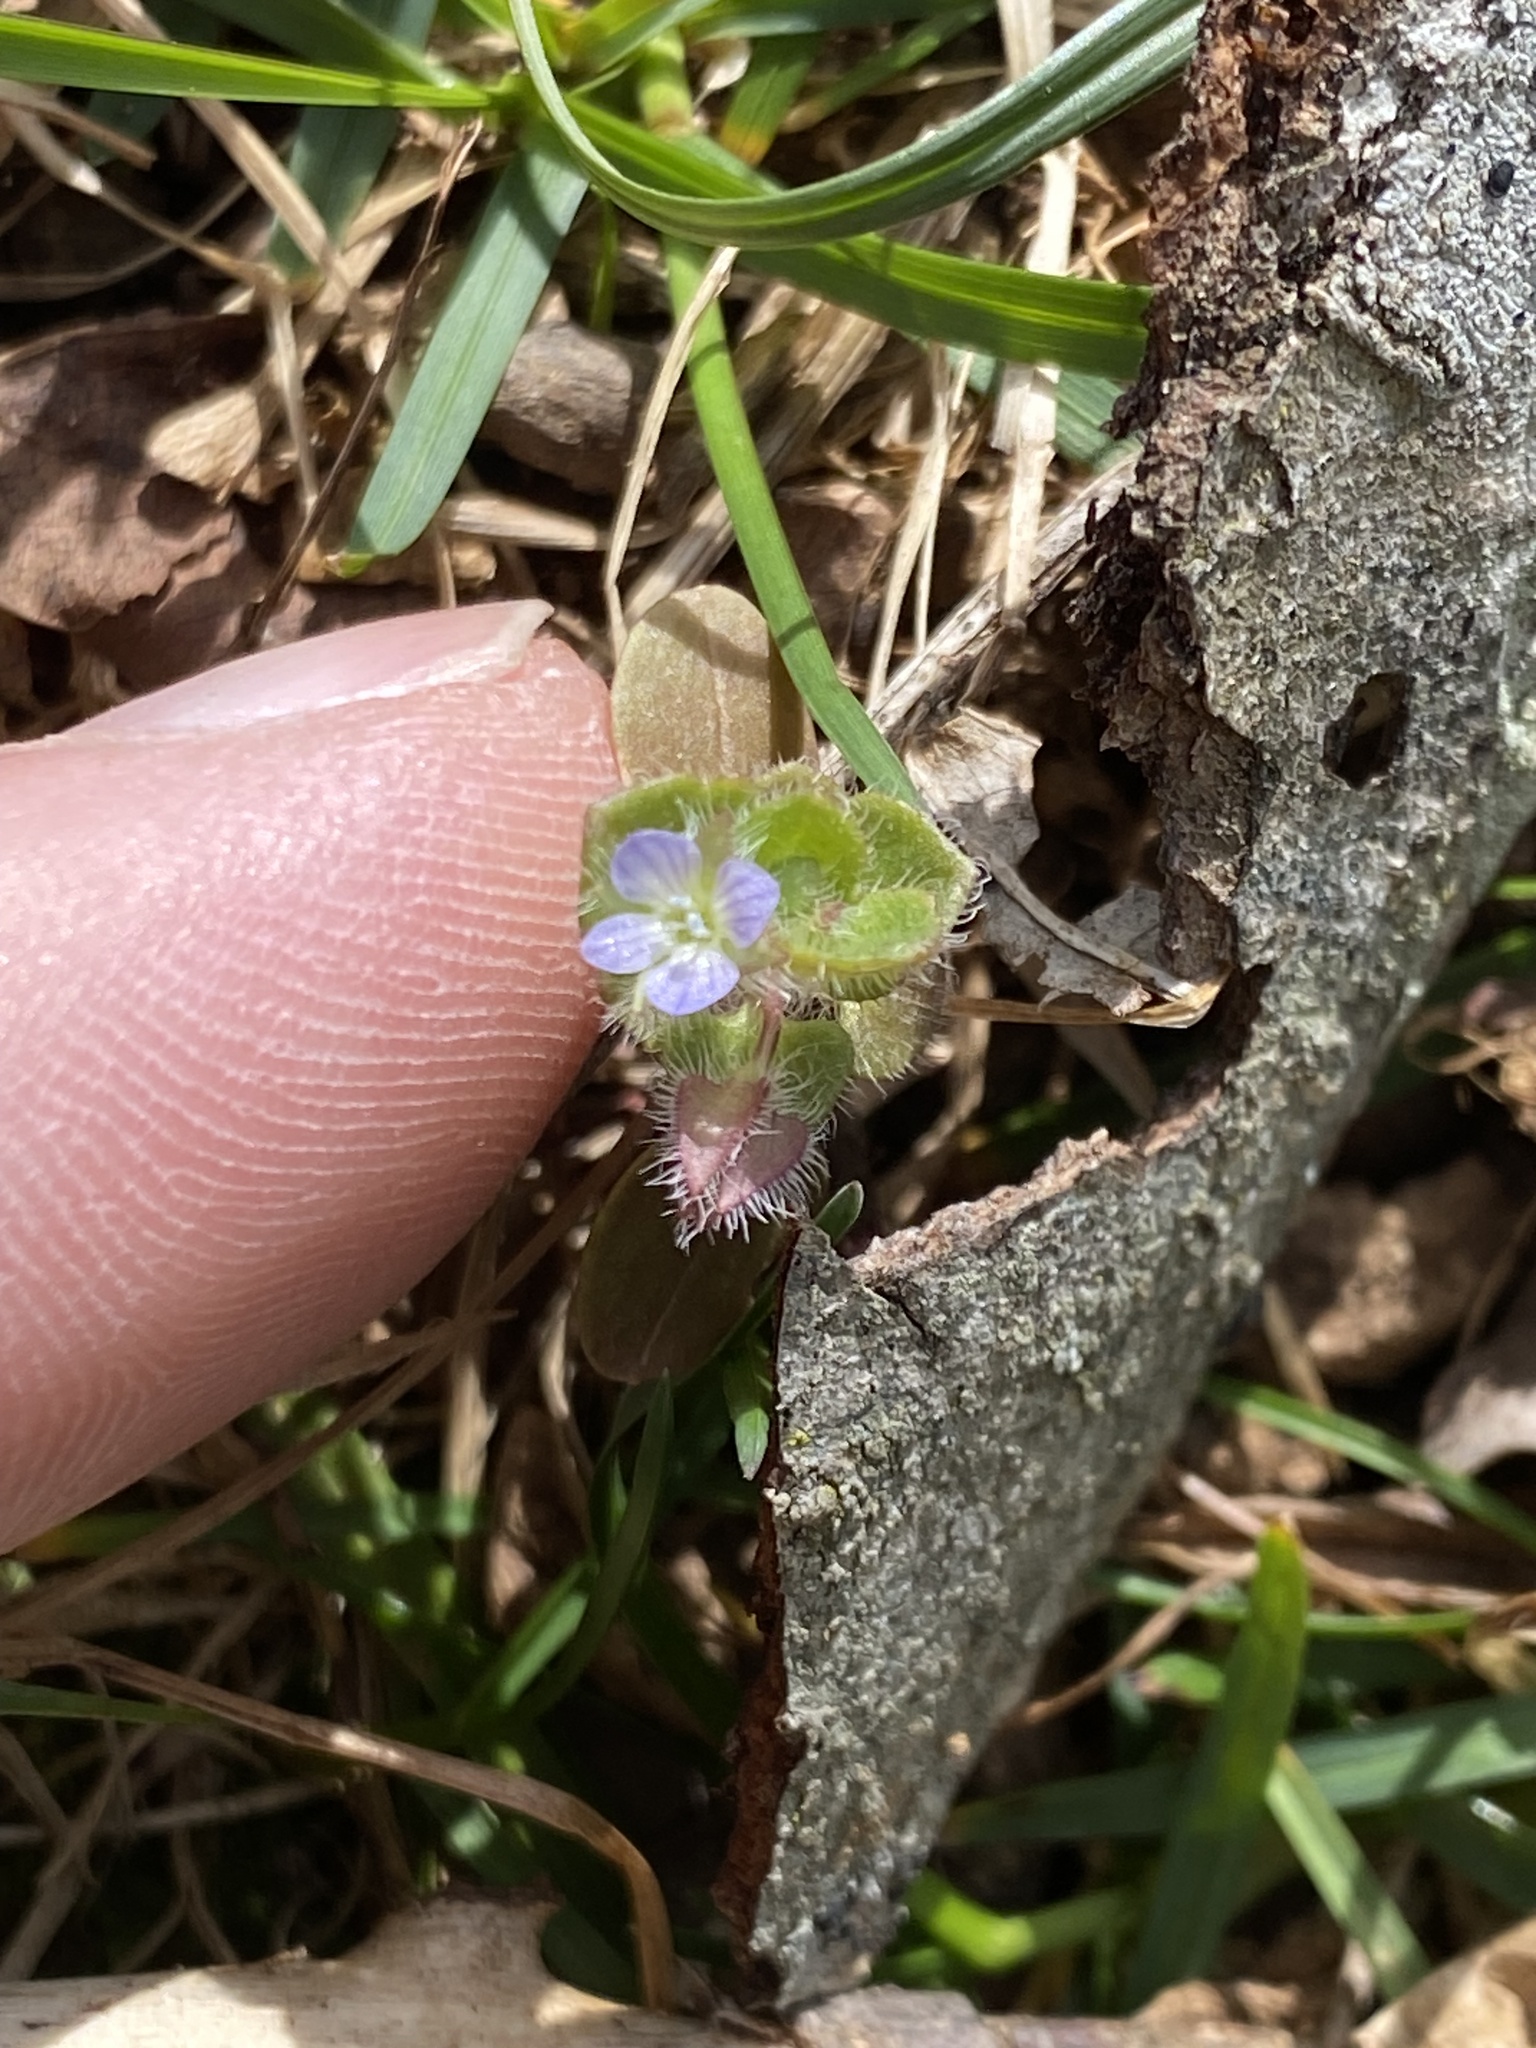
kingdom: Plantae
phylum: Tracheophyta
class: Magnoliopsida
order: Lamiales
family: Plantaginaceae
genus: Veronica
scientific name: Veronica hederifolia
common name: Ivy-leaved speedwell
